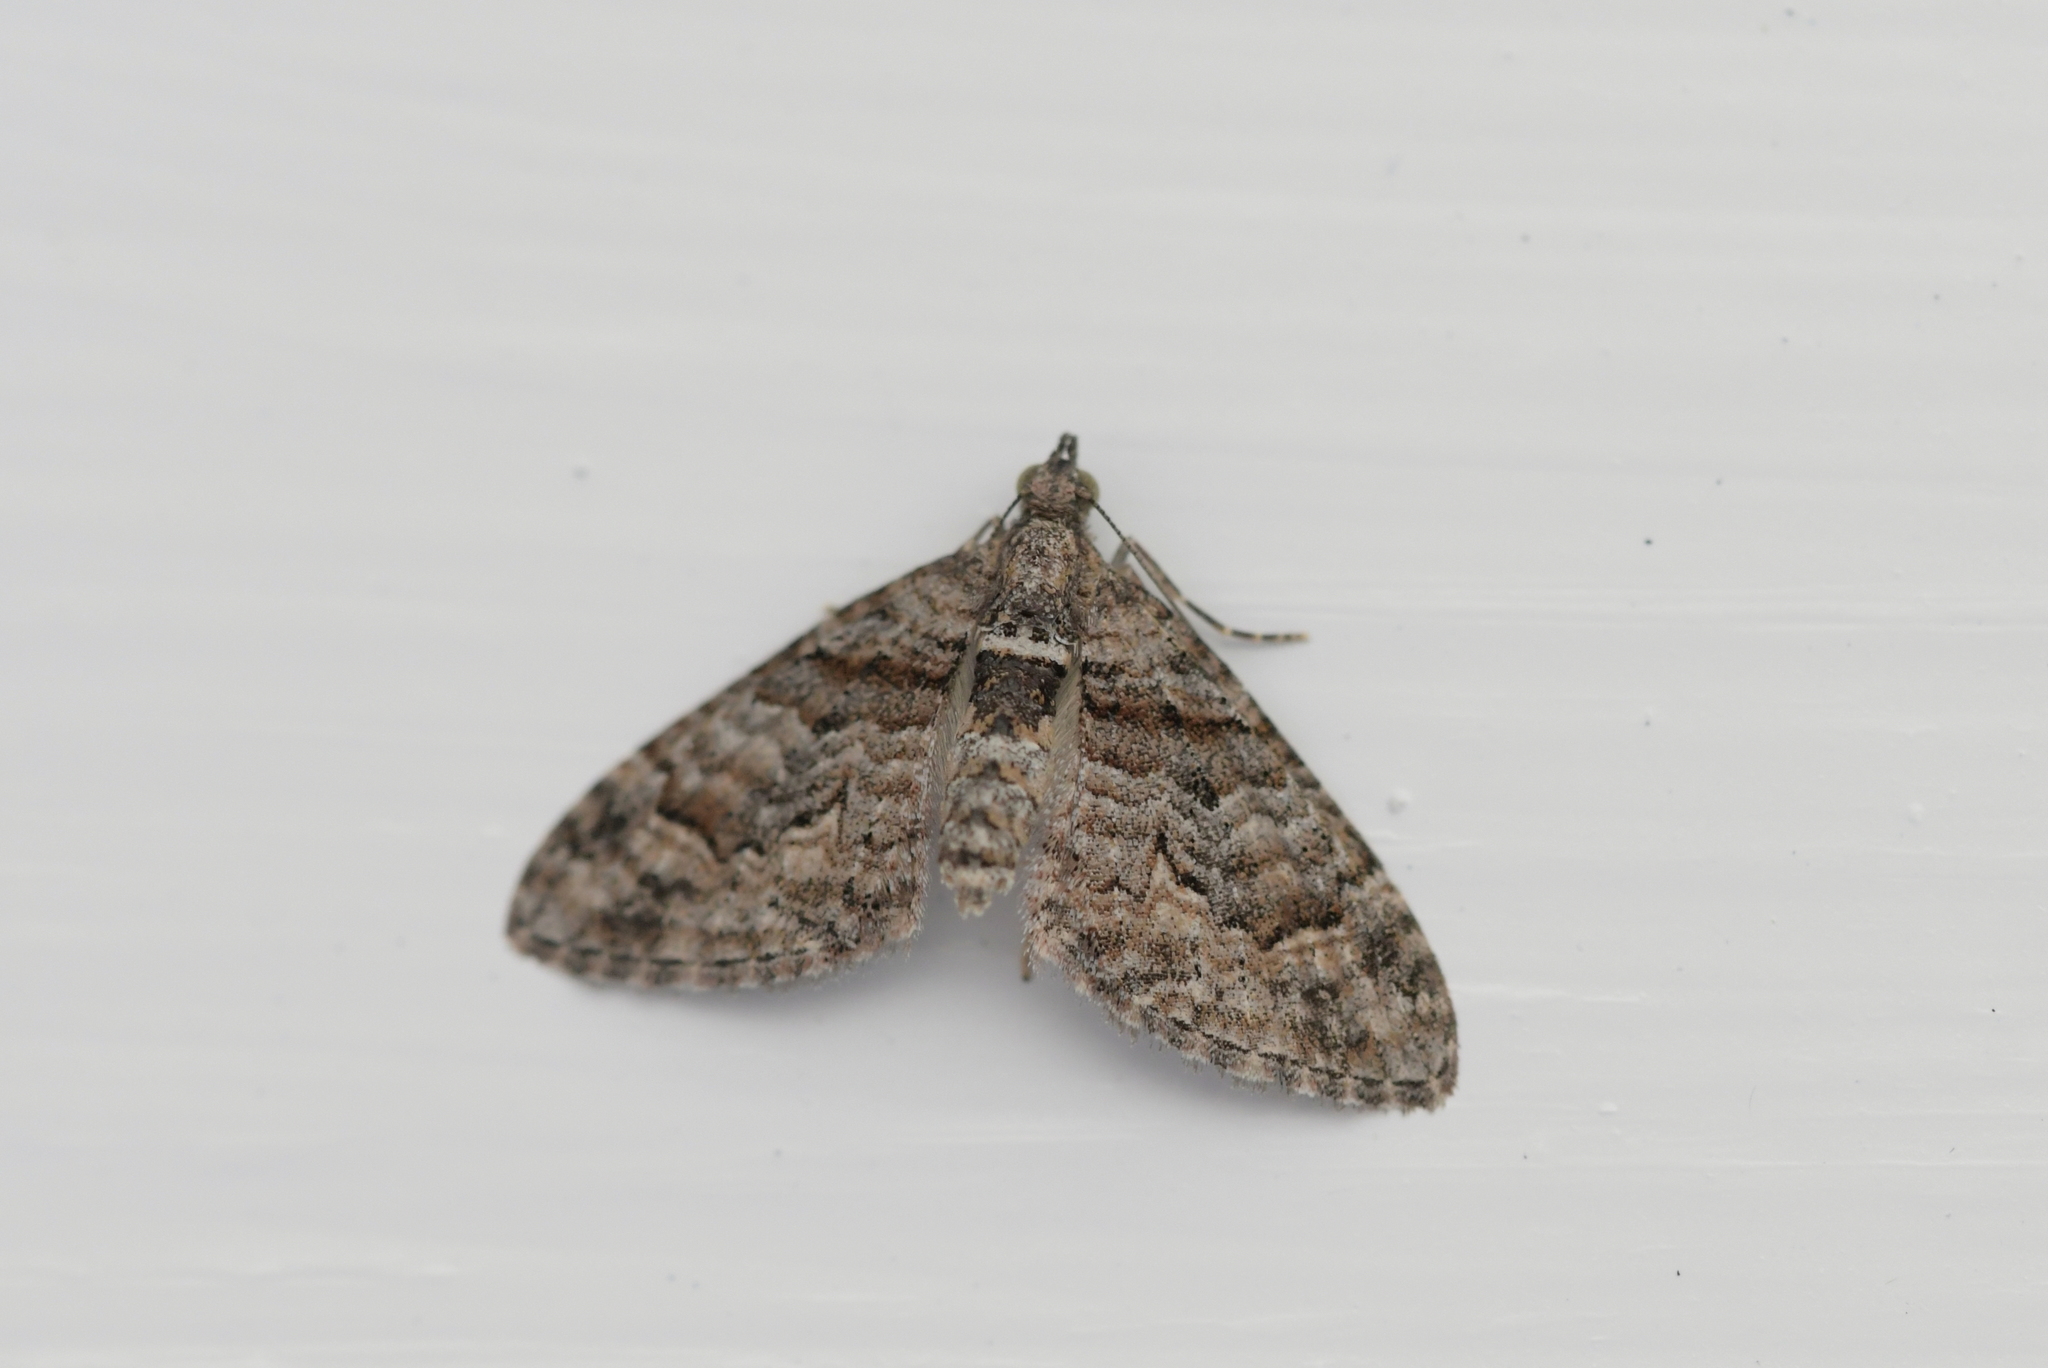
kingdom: Animalia
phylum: Arthropoda
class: Insecta
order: Lepidoptera
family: Geometridae
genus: Phrissogonus
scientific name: Phrissogonus laticostata
